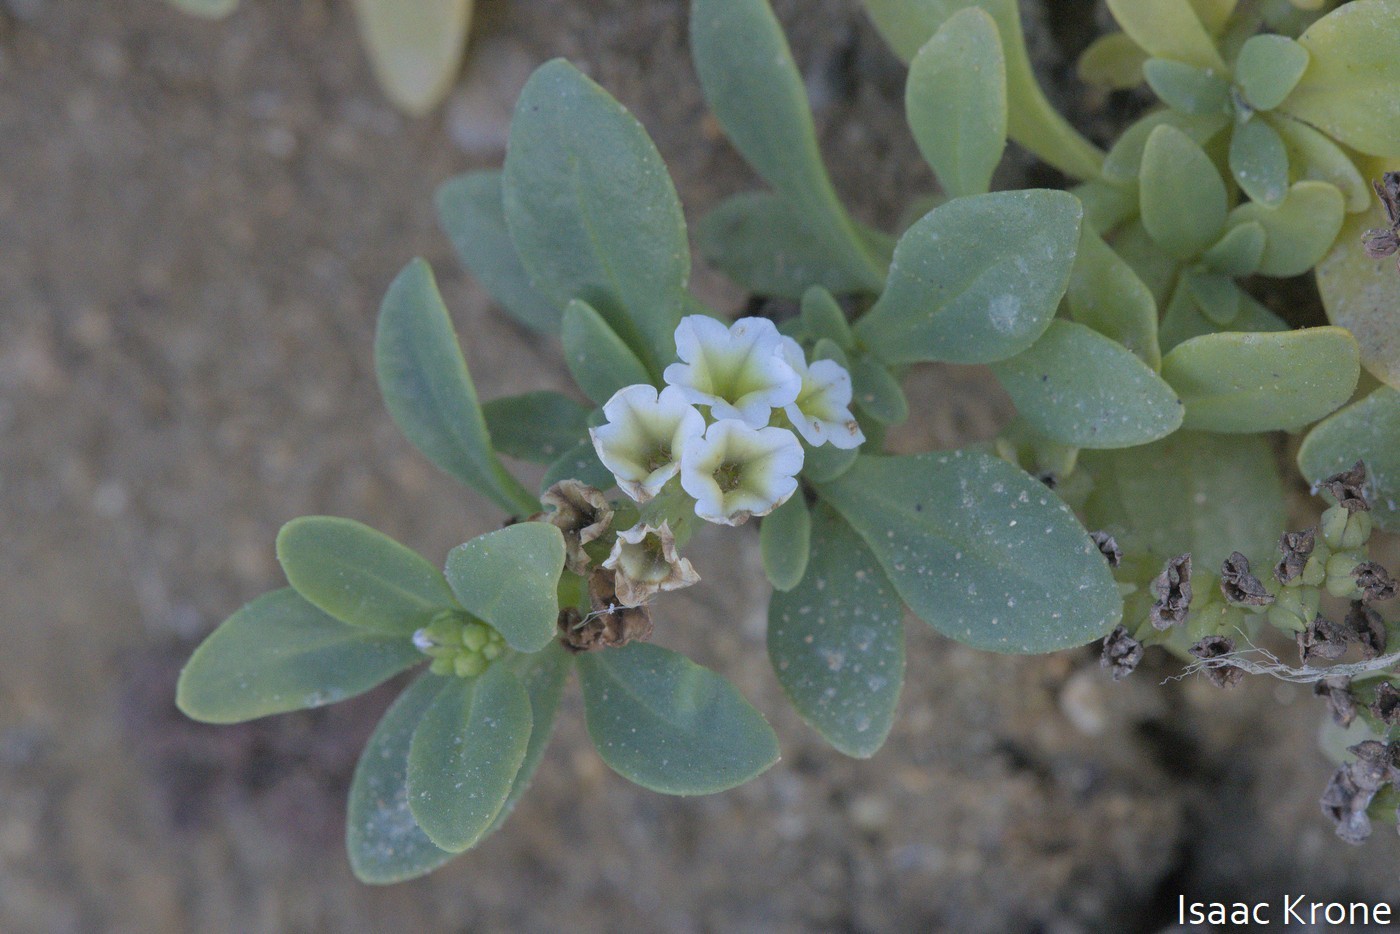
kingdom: Plantae
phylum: Tracheophyta
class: Magnoliopsida
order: Boraginales
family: Heliotropiaceae
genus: Heliotropium
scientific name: Heliotropium curassavicum
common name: Seaside heliotrope
